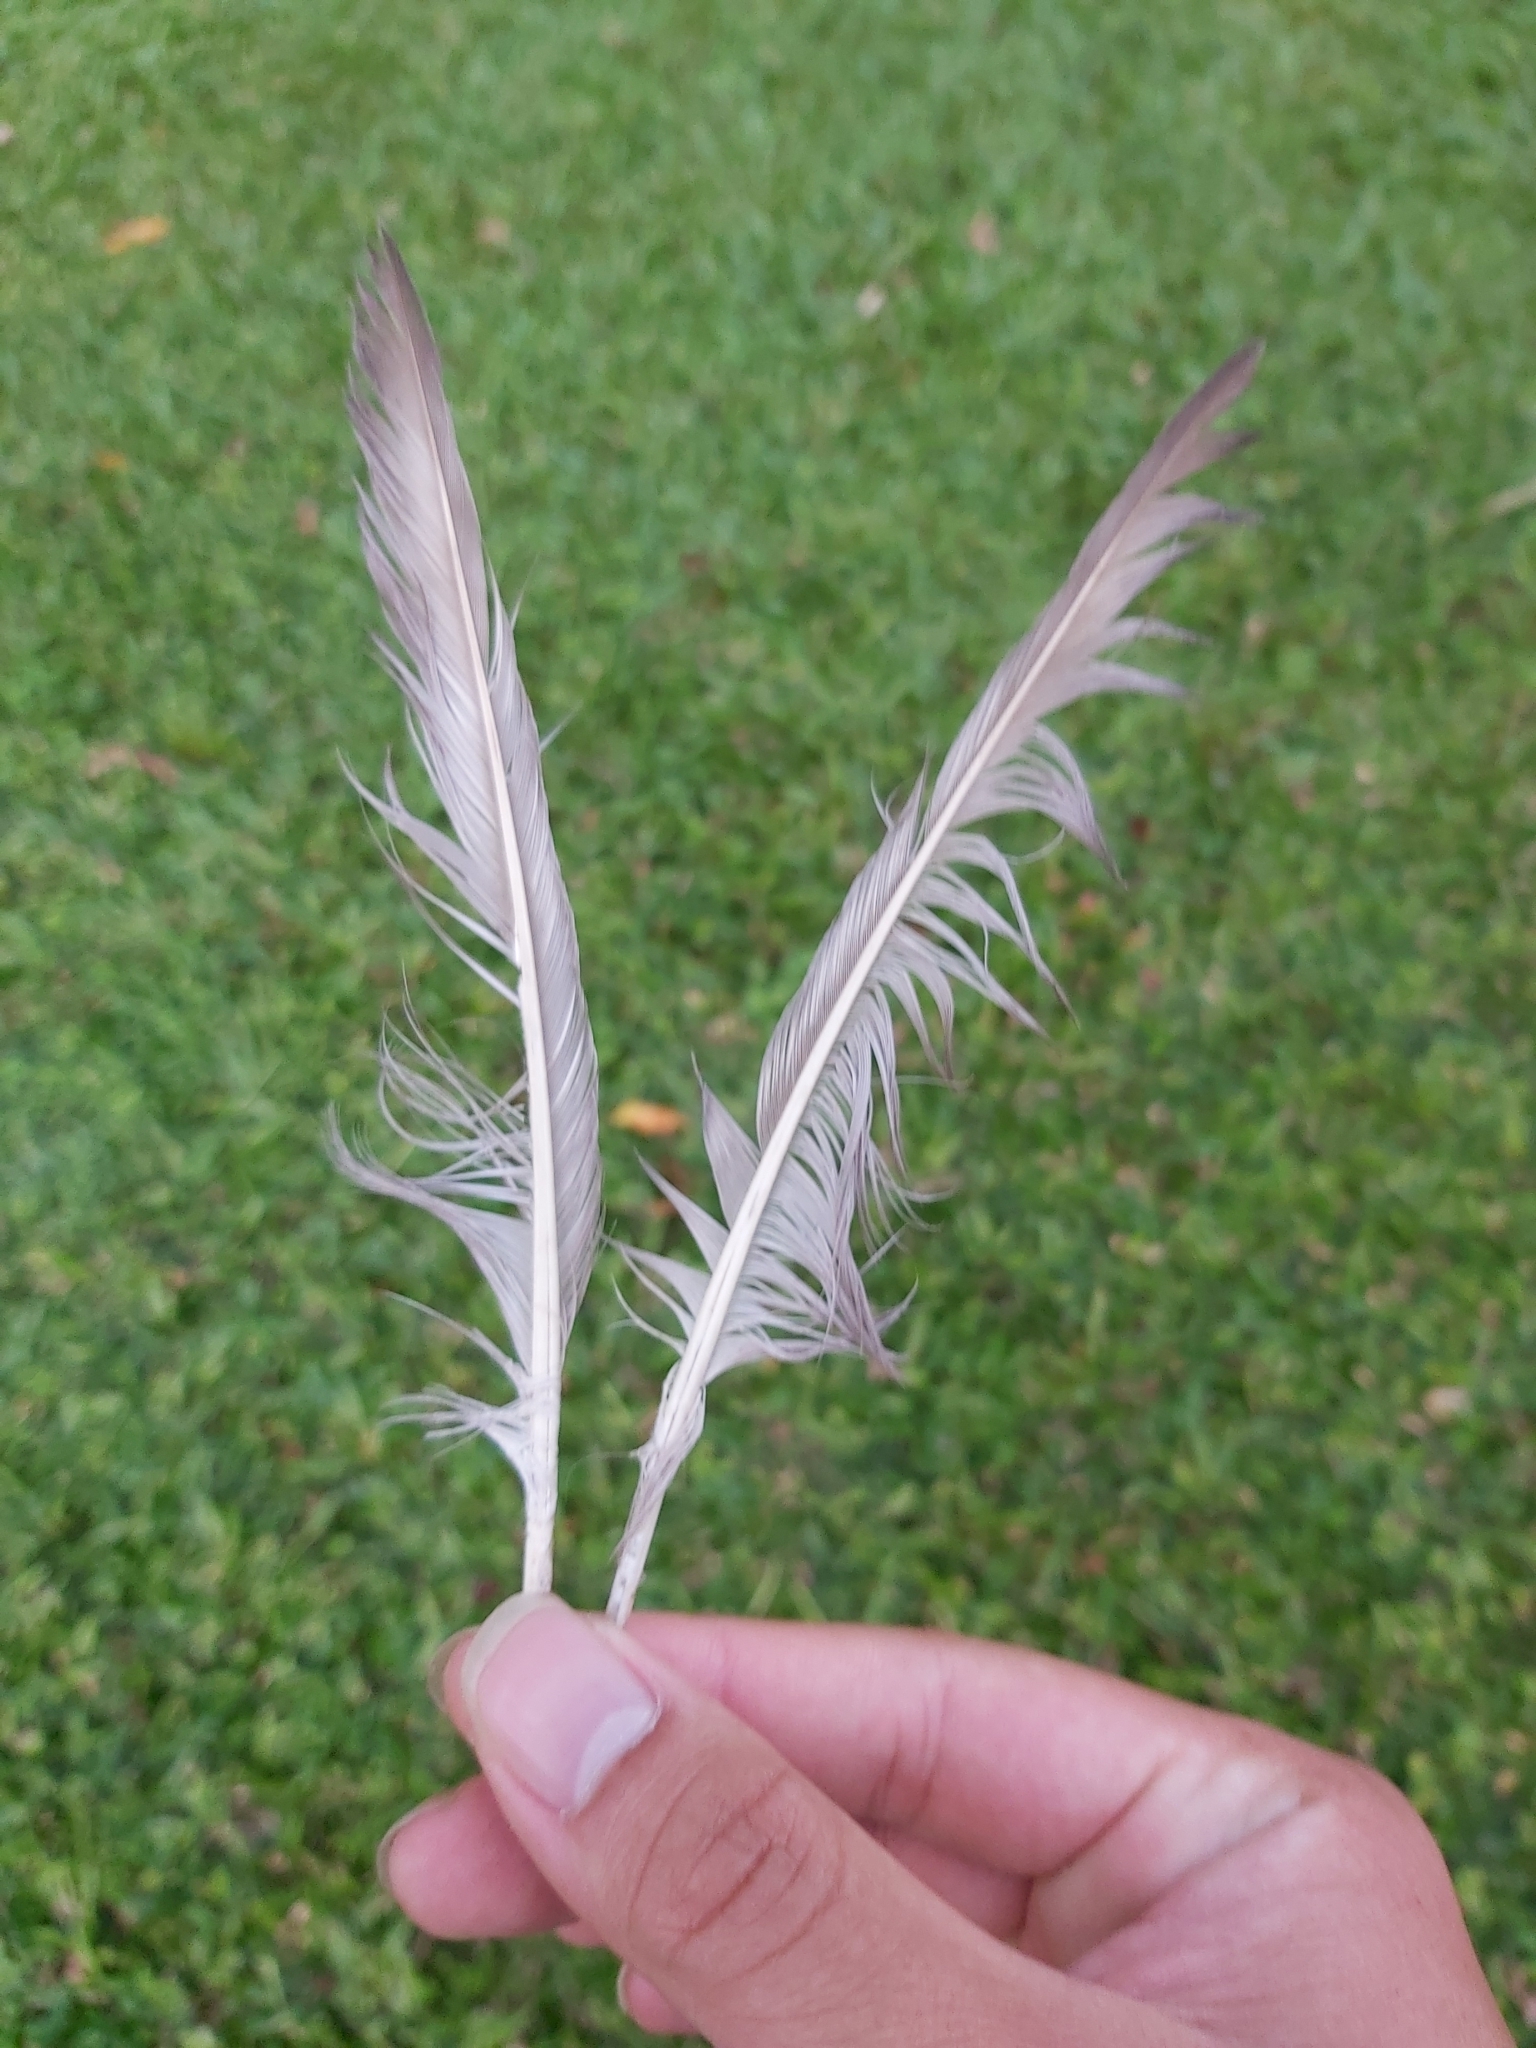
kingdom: Animalia
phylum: Chordata
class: Aves
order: Columbiformes
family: Columbidae
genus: Columba
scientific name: Columba livia
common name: Rock pigeon
